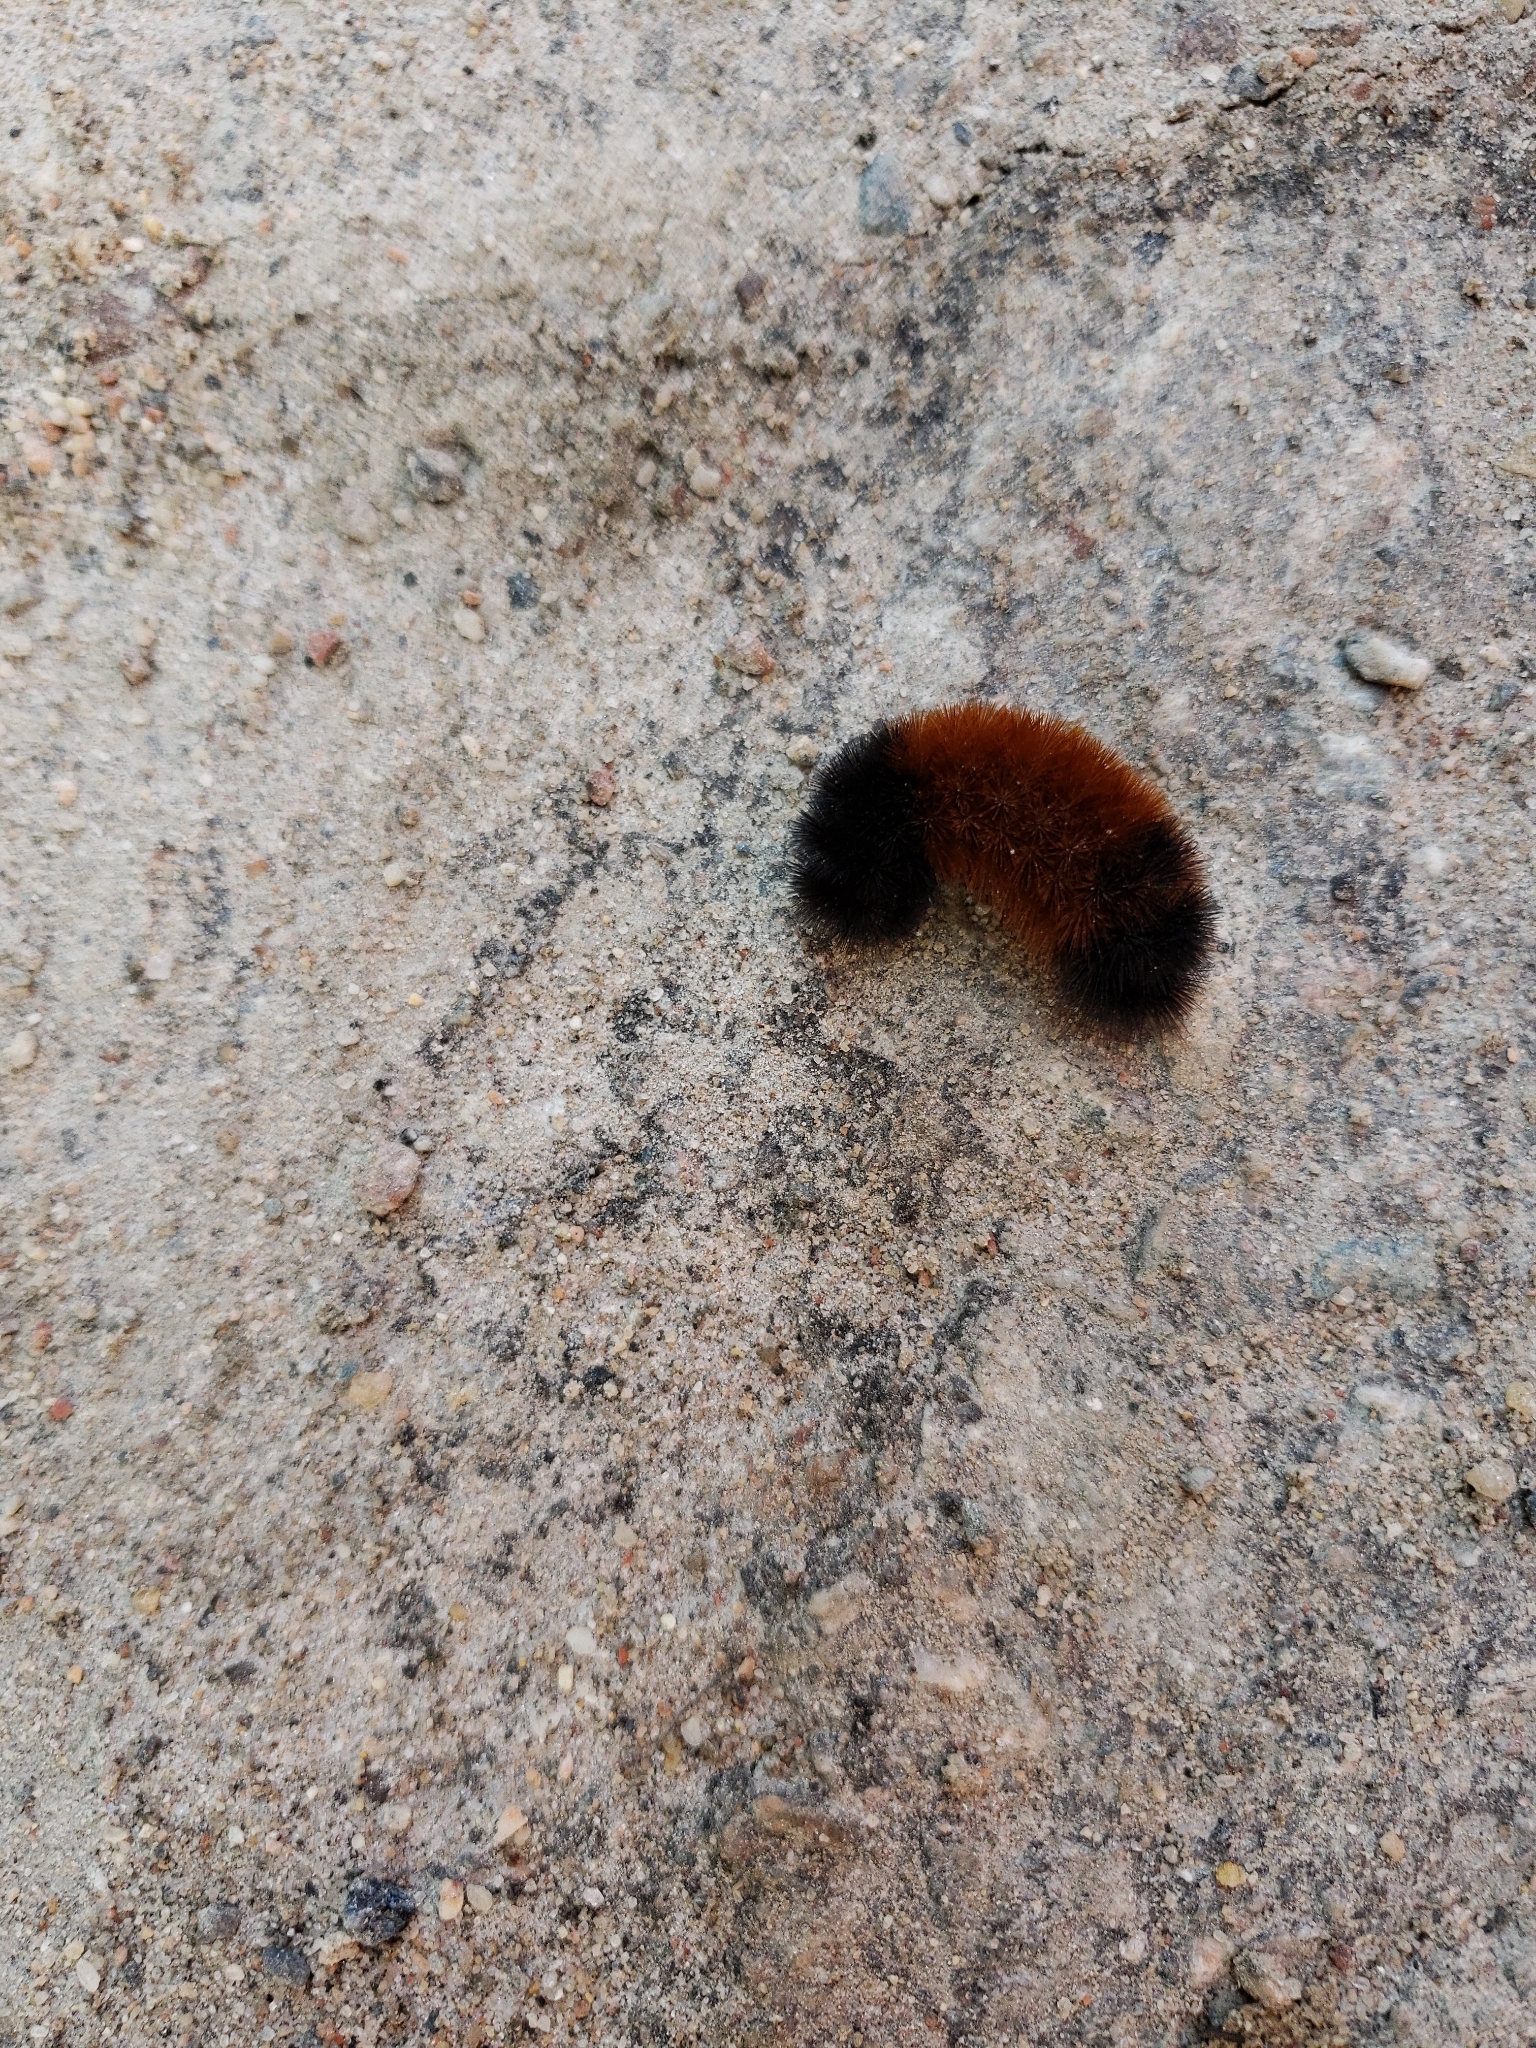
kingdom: Animalia
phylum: Arthropoda
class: Insecta
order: Lepidoptera
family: Erebidae
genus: Pyrrharctia
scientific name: Pyrrharctia isabella
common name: Isabella tiger moth
